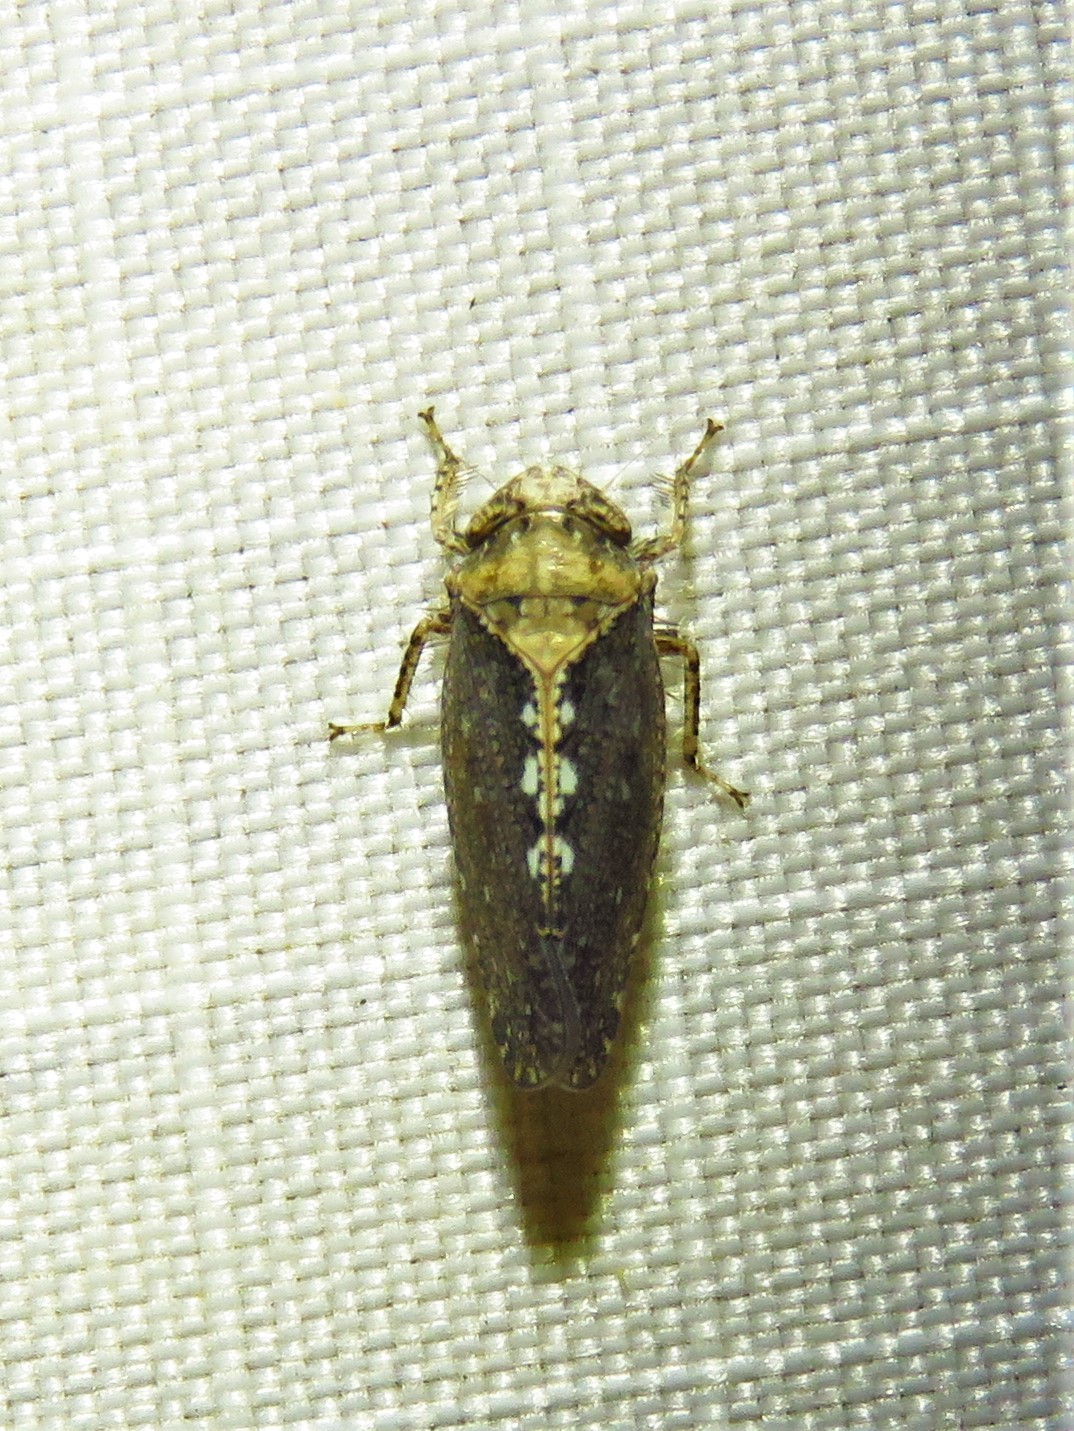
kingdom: Animalia
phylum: Arthropoda
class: Insecta
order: Hemiptera
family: Cicadellidae
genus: Excultanus
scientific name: Excultanus excultus
